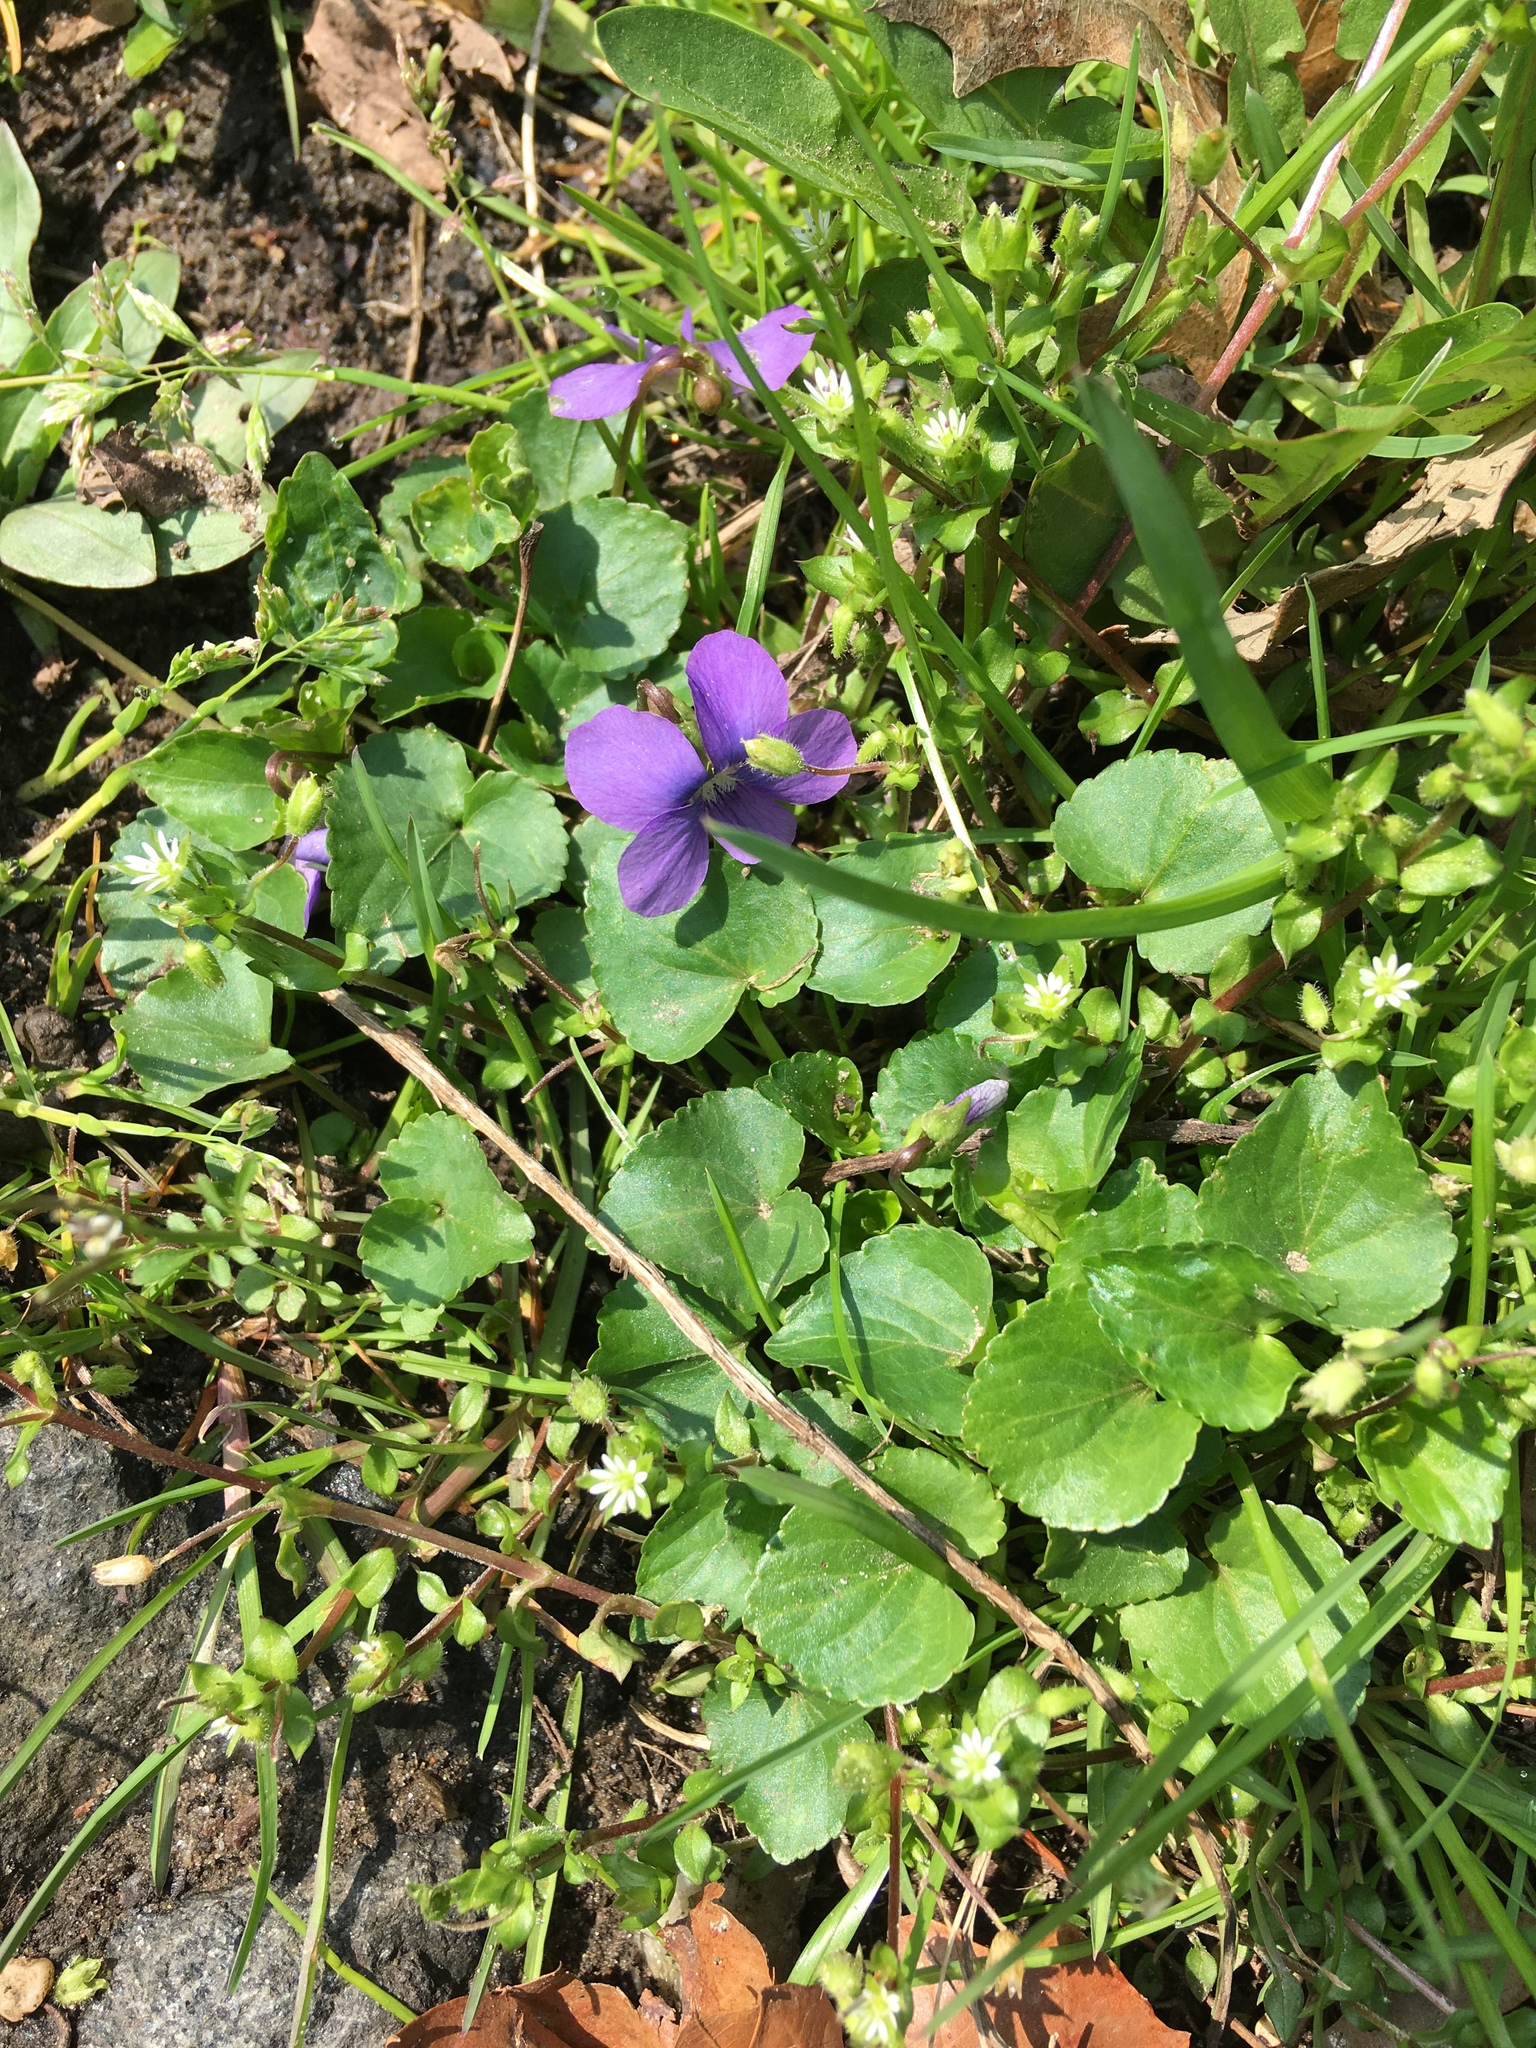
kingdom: Plantae
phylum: Tracheophyta
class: Magnoliopsida
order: Malpighiales
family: Violaceae
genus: Viola
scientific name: Viola sororia
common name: Dooryard violet
